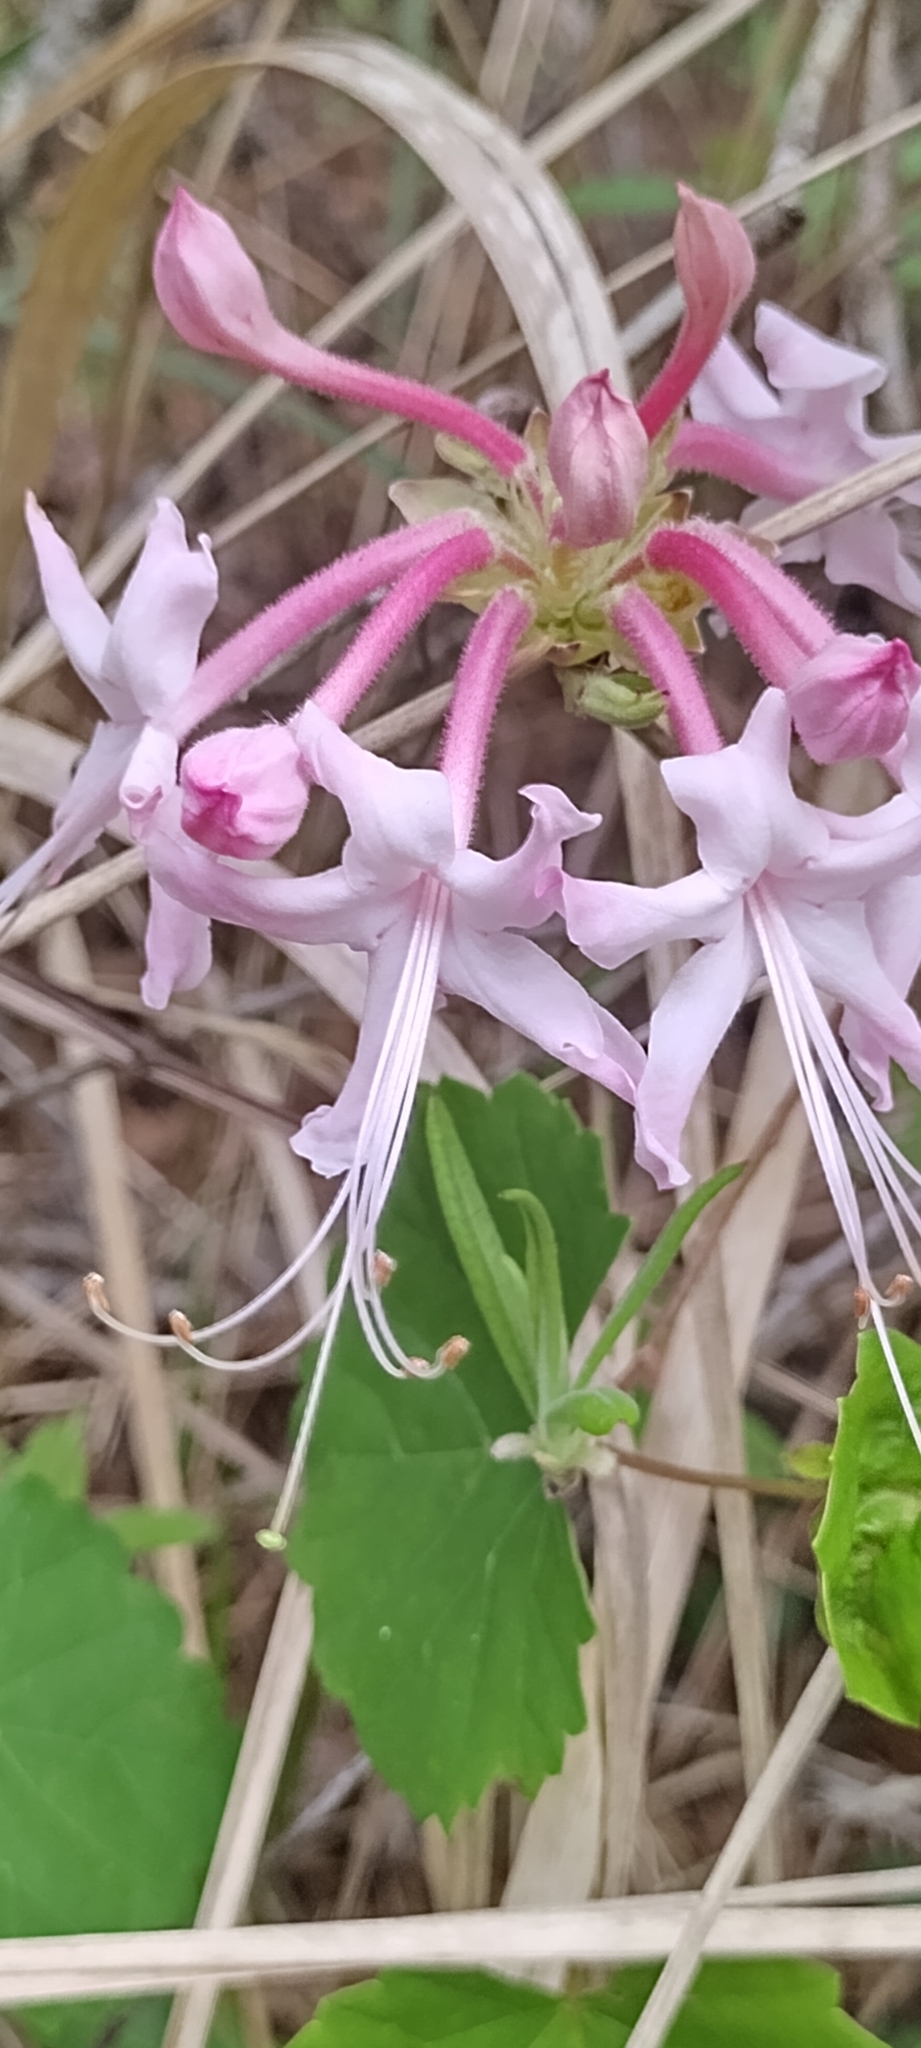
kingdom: Plantae
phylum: Tracheophyta
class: Magnoliopsida
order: Ericales
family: Ericaceae
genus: Rhododendron
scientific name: Rhododendron canescens
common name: Mountain azalea
